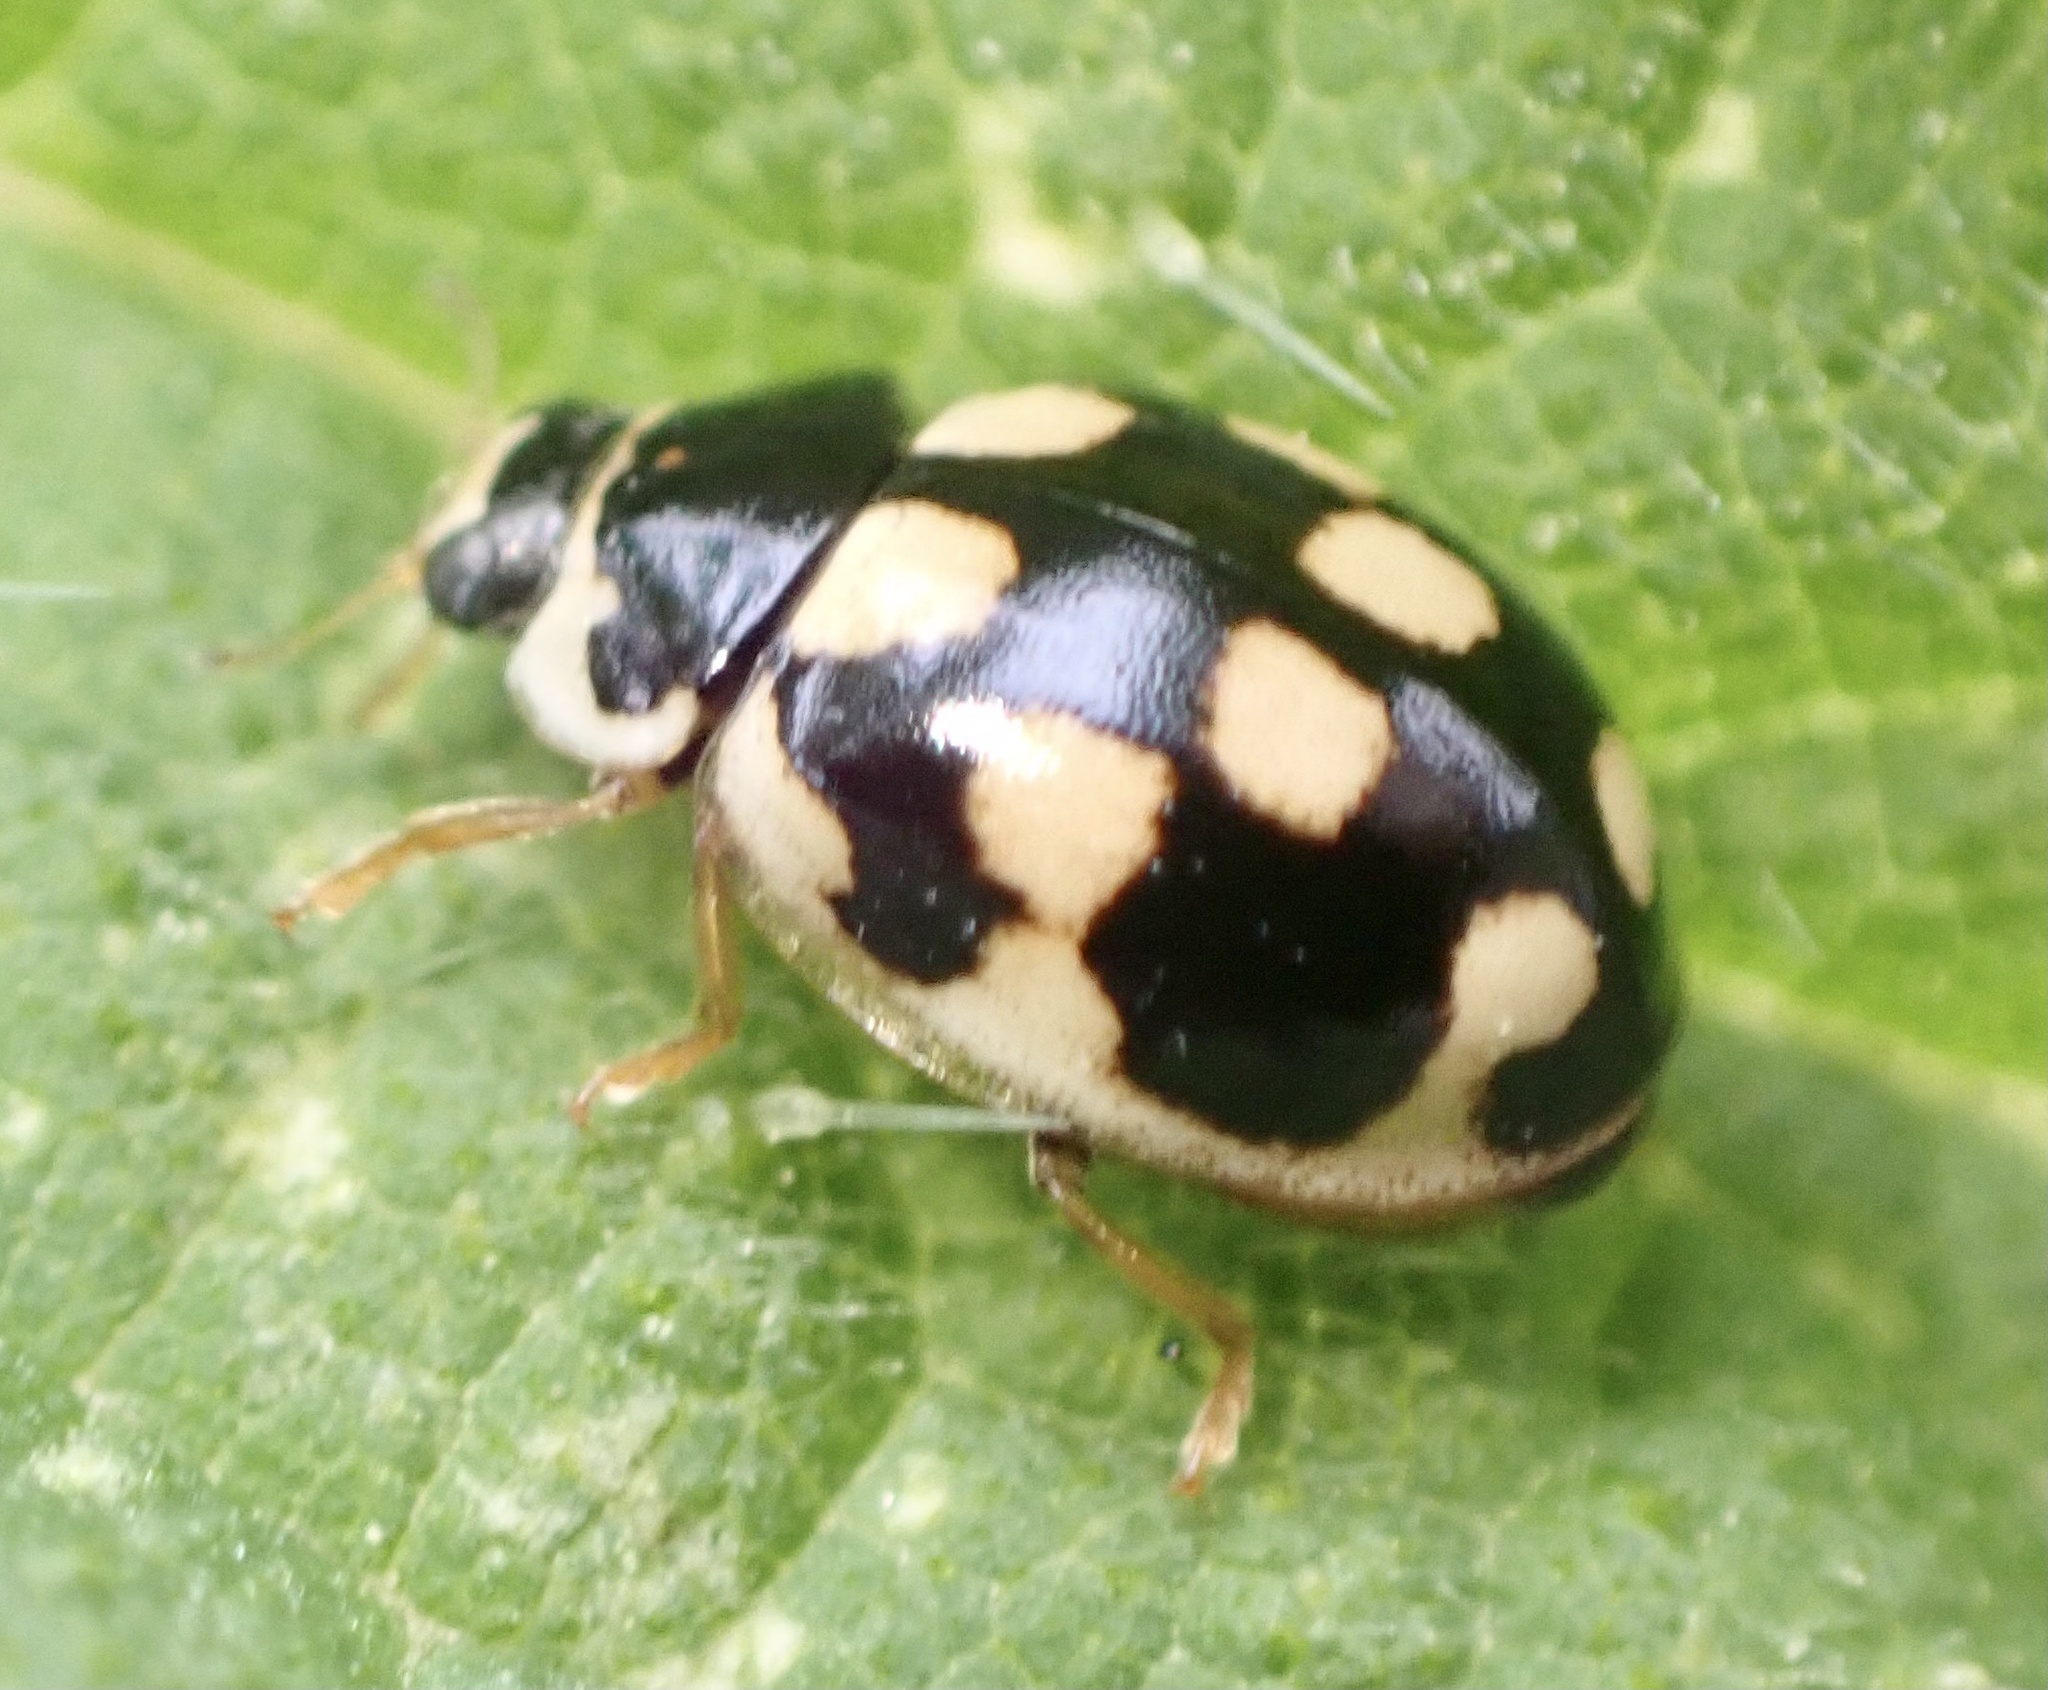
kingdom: Animalia
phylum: Arthropoda
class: Insecta
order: Coleoptera
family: Coccinellidae
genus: Propylaea
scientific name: Propylaea quatuordecimpunctata
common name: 14-spotted ladybird beetle
